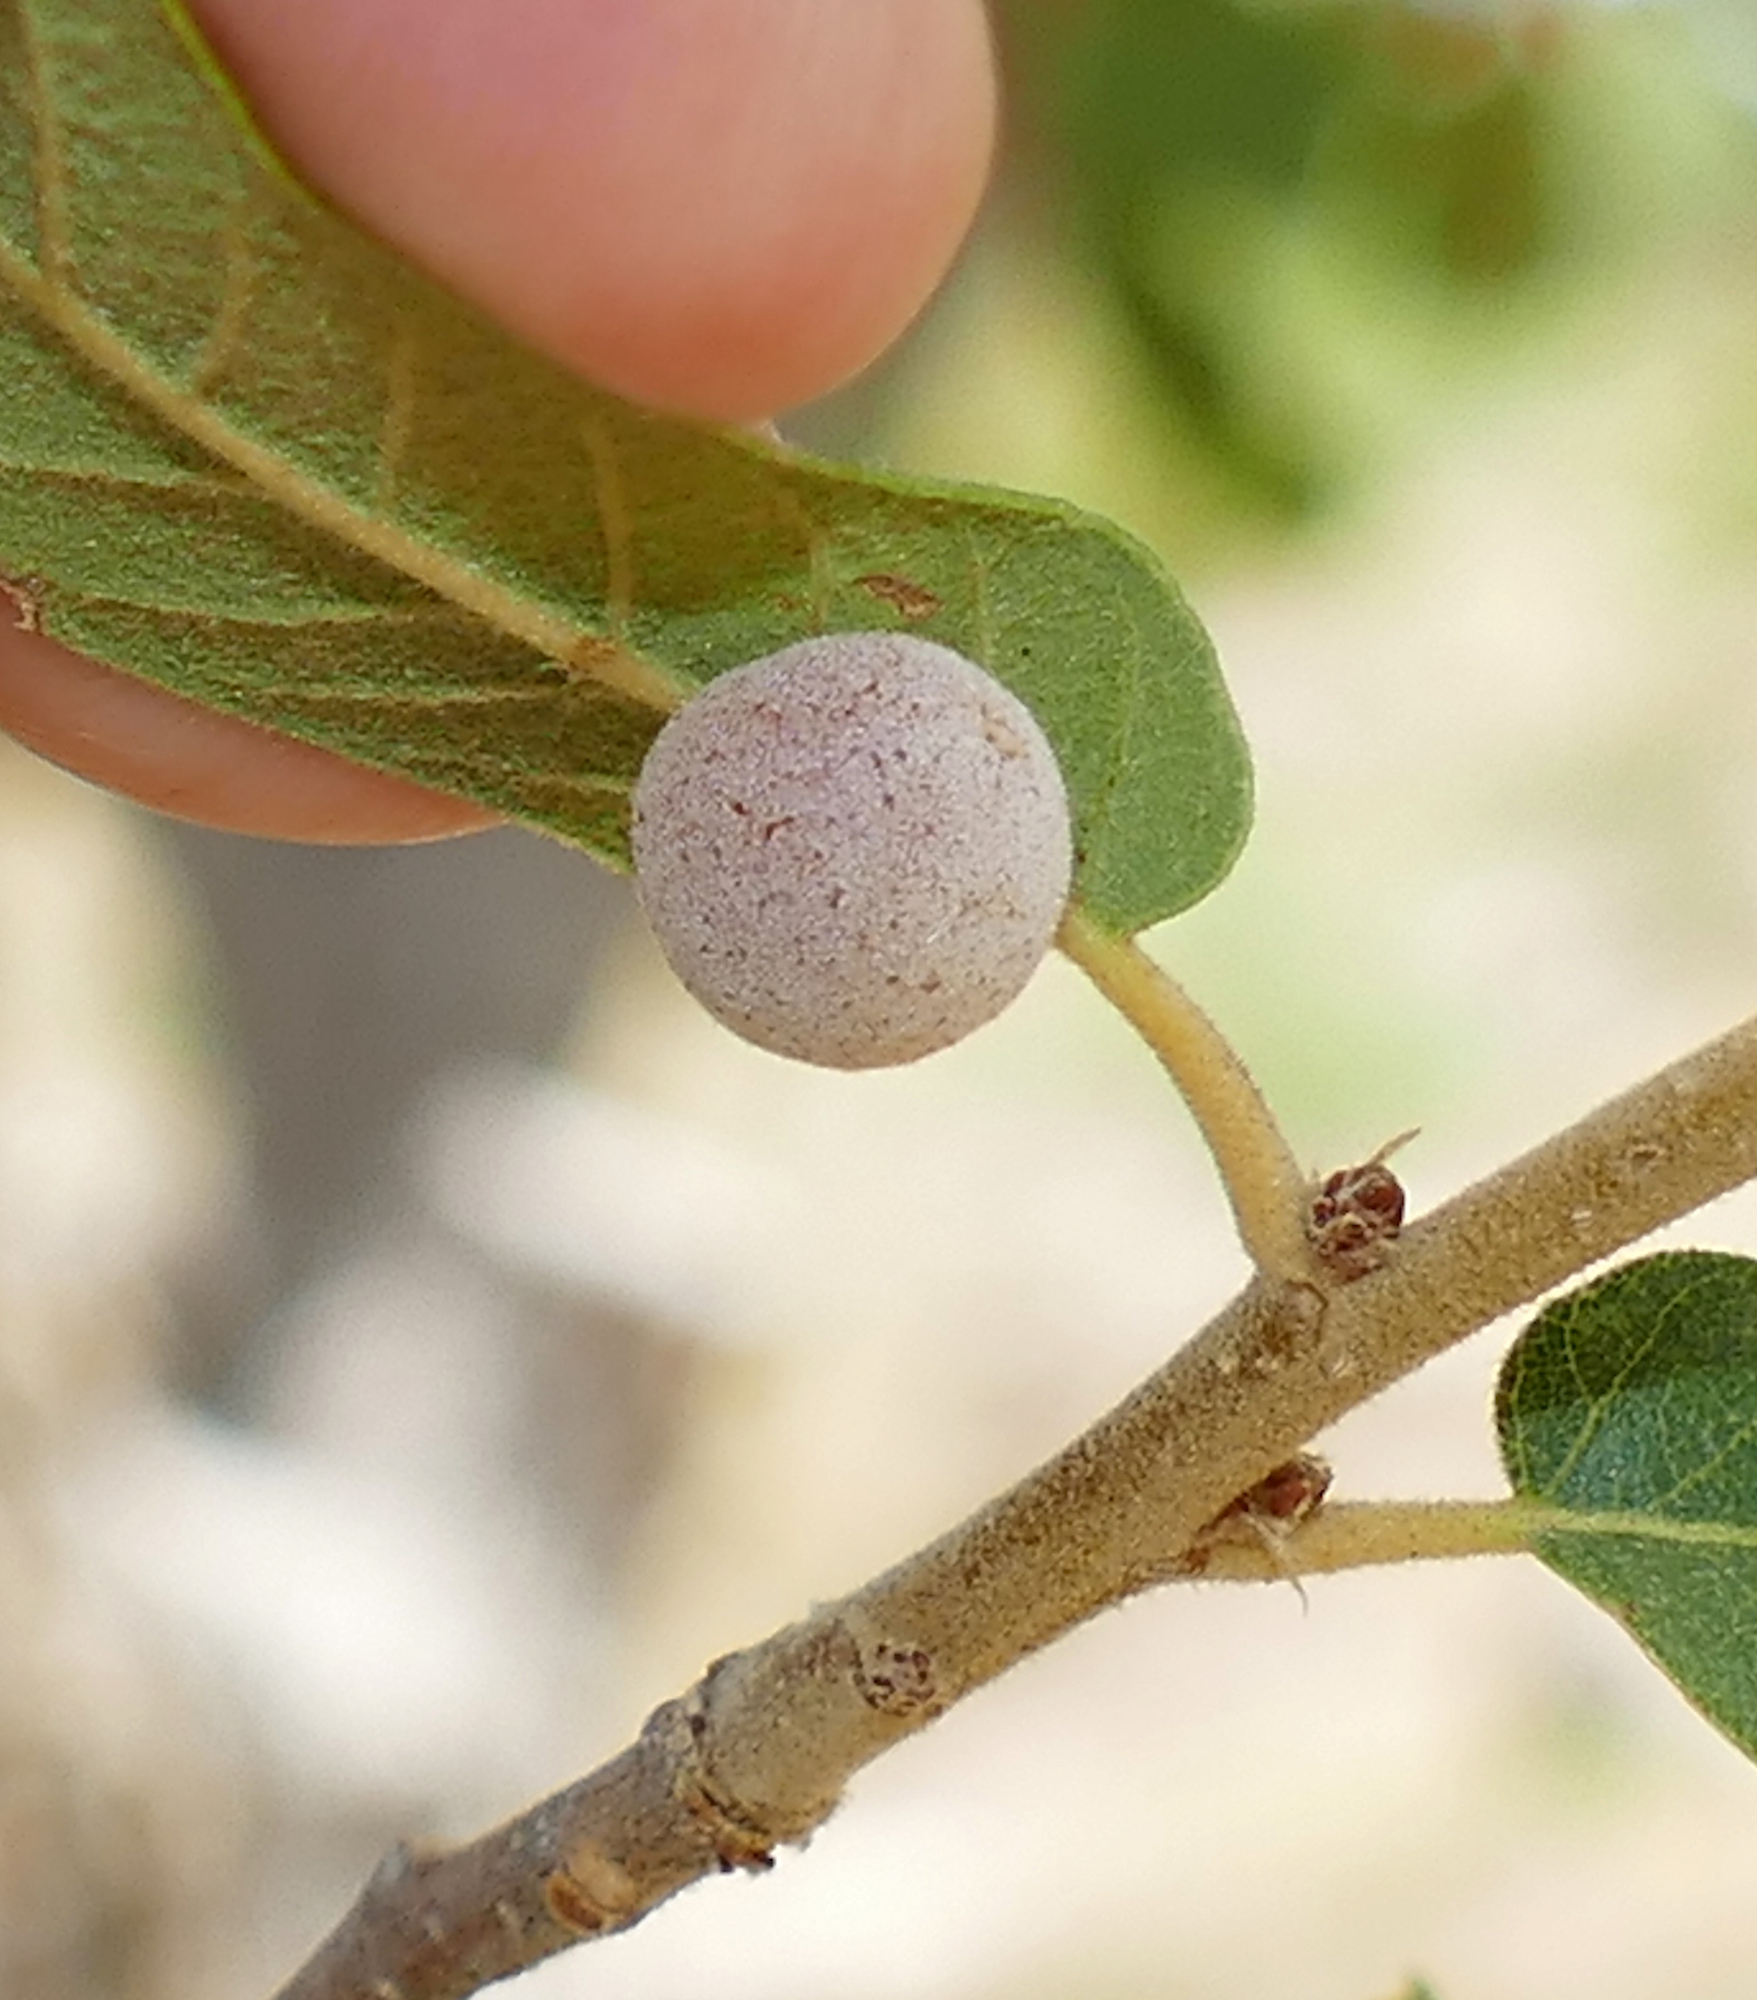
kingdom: Animalia
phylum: Arthropoda
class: Insecta
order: Hymenoptera
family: Cynipidae
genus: Cynips
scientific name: Cynips
